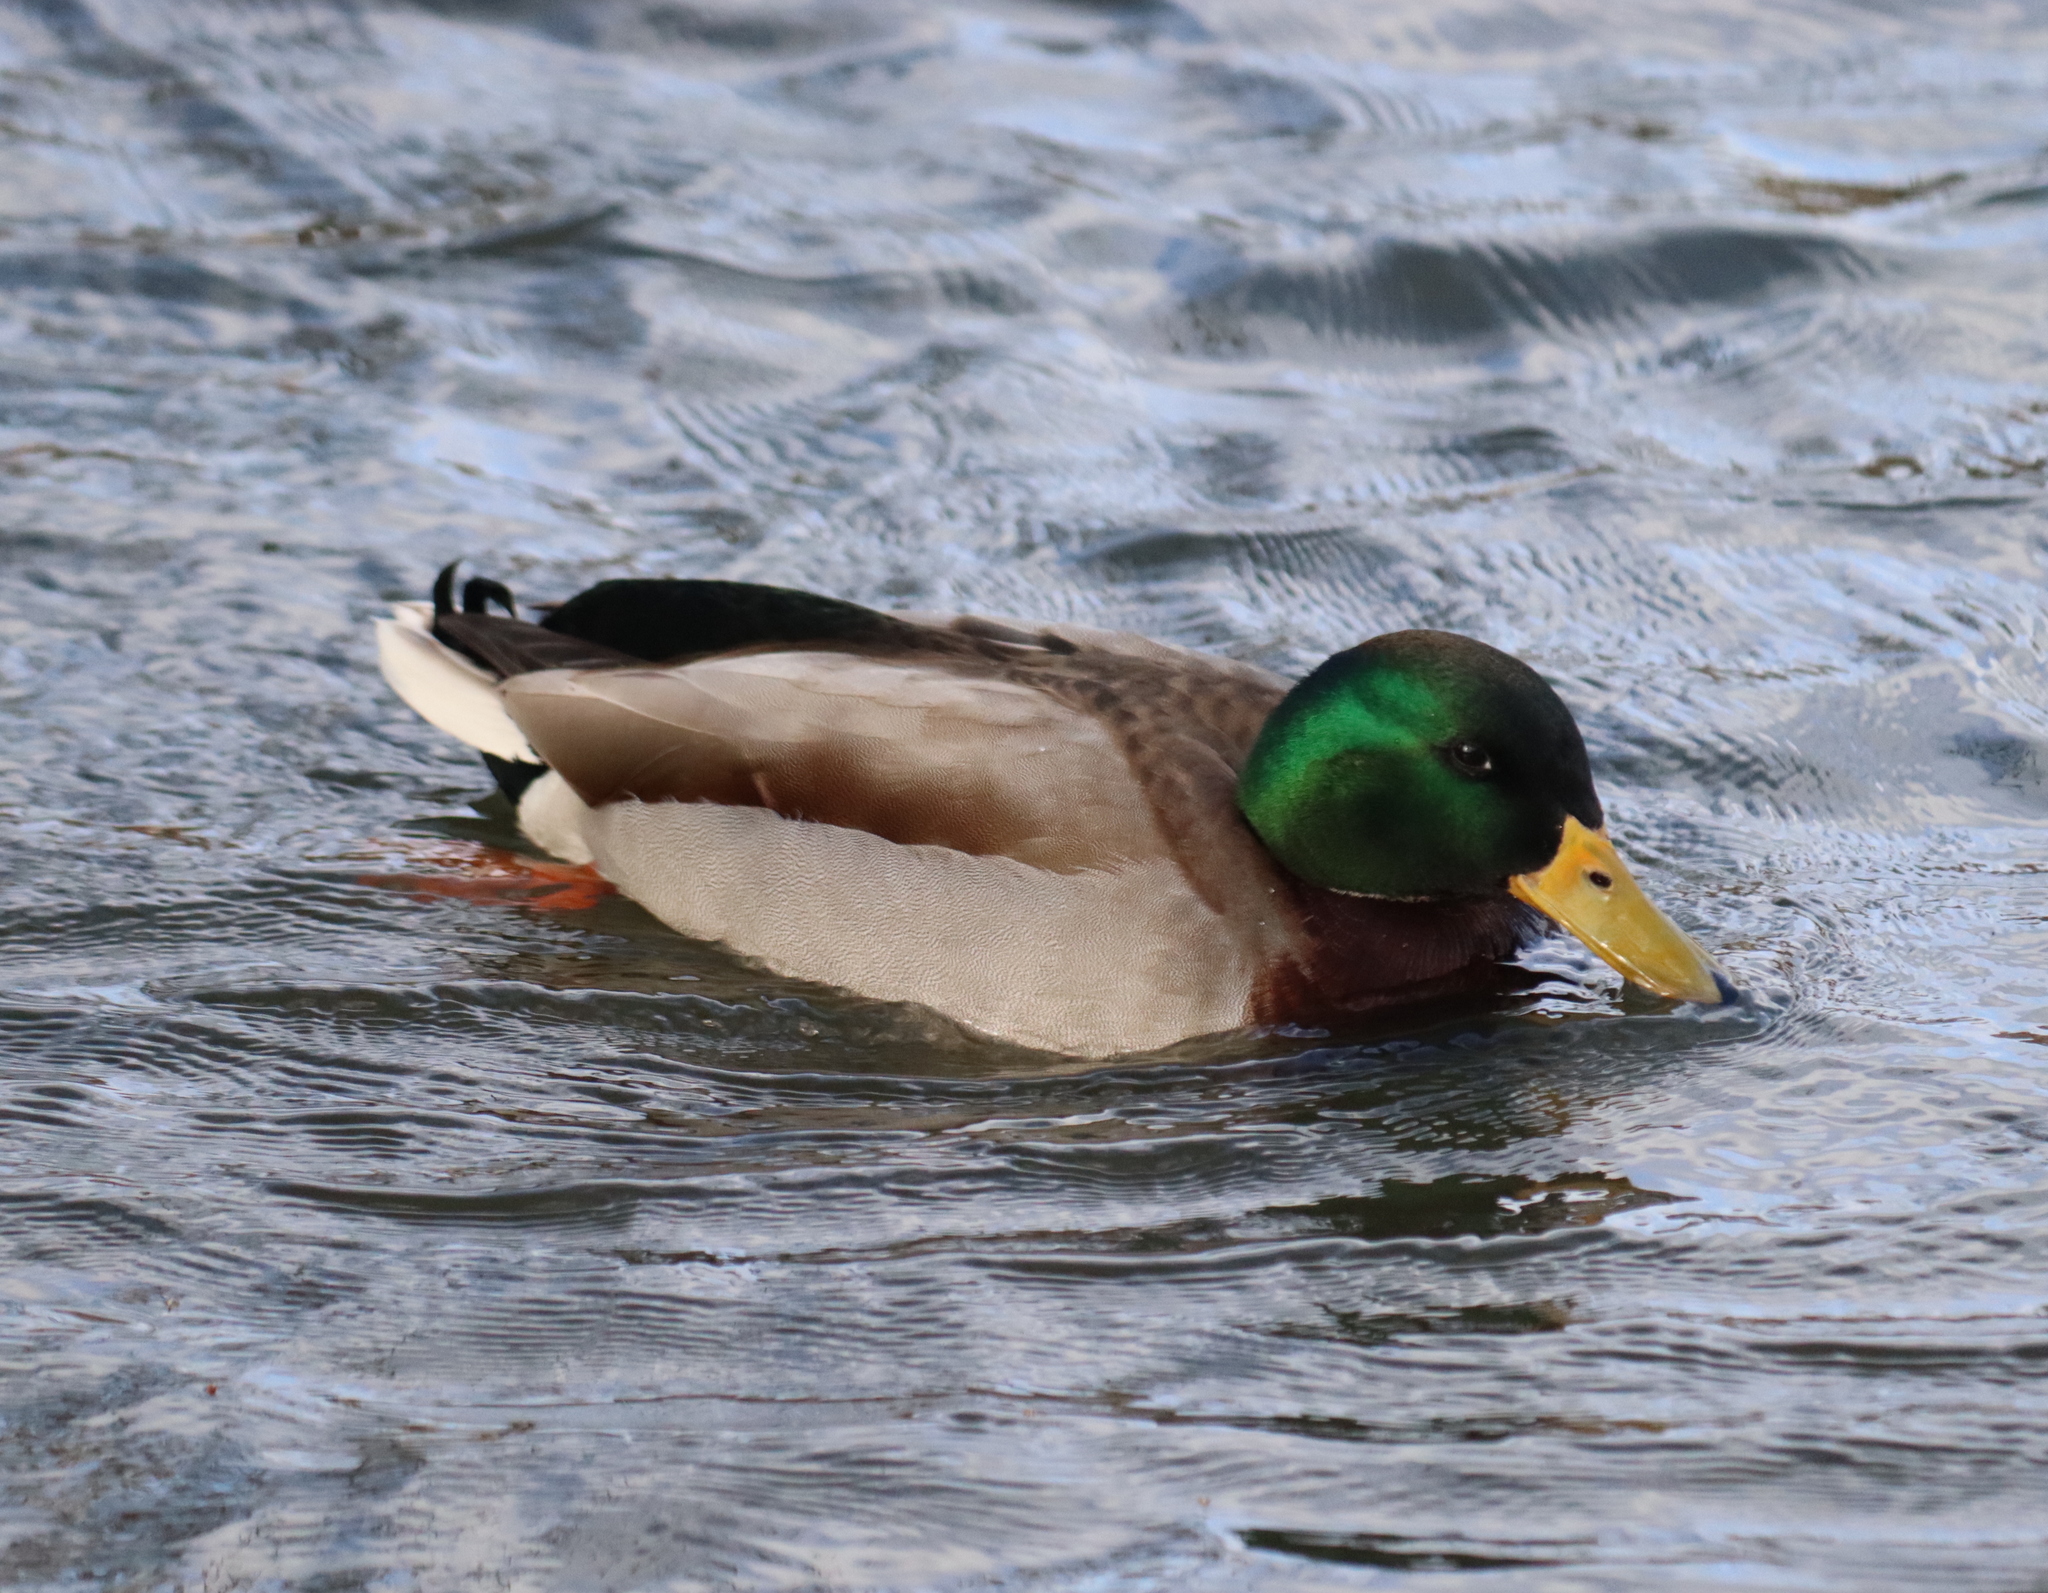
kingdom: Animalia
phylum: Chordata
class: Aves
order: Anseriformes
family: Anatidae
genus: Anas
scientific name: Anas platyrhynchos
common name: Mallard
